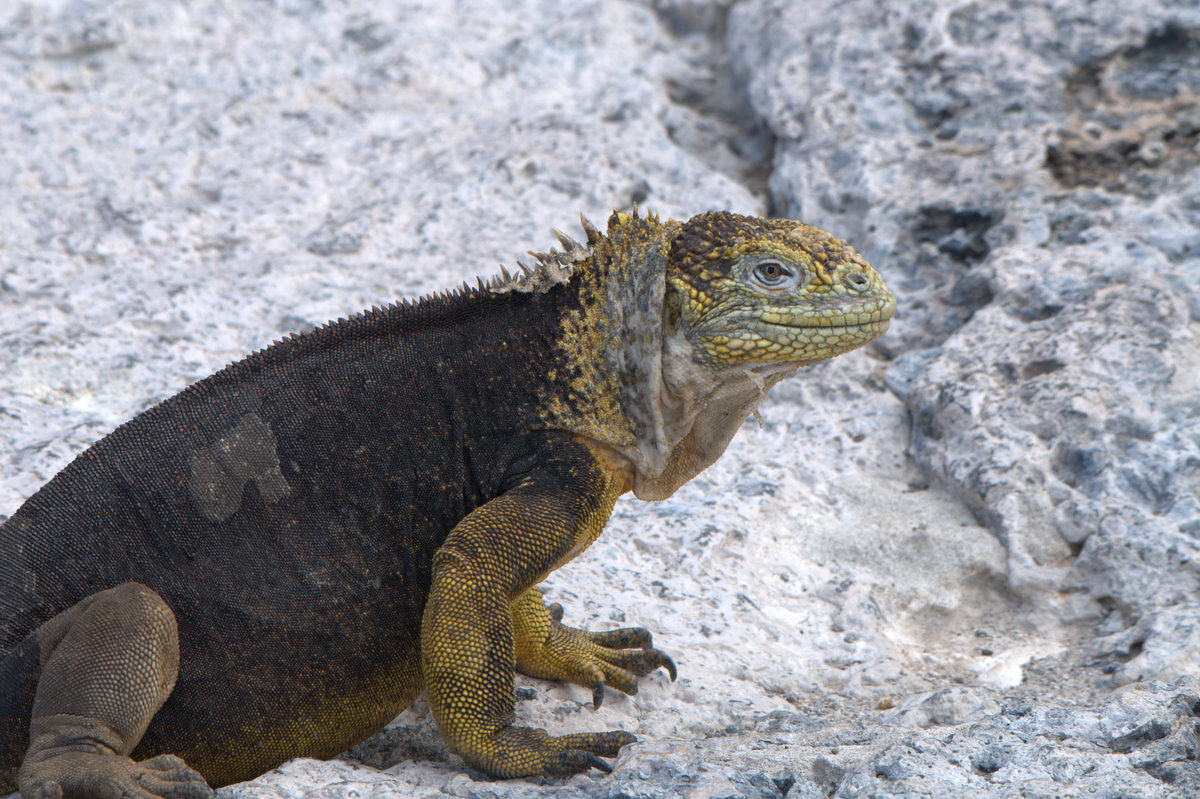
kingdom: Animalia
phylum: Chordata
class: Squamata
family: Iguanidae
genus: Conolophus
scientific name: Conolophus subcristatus
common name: Galapagos land iguana
